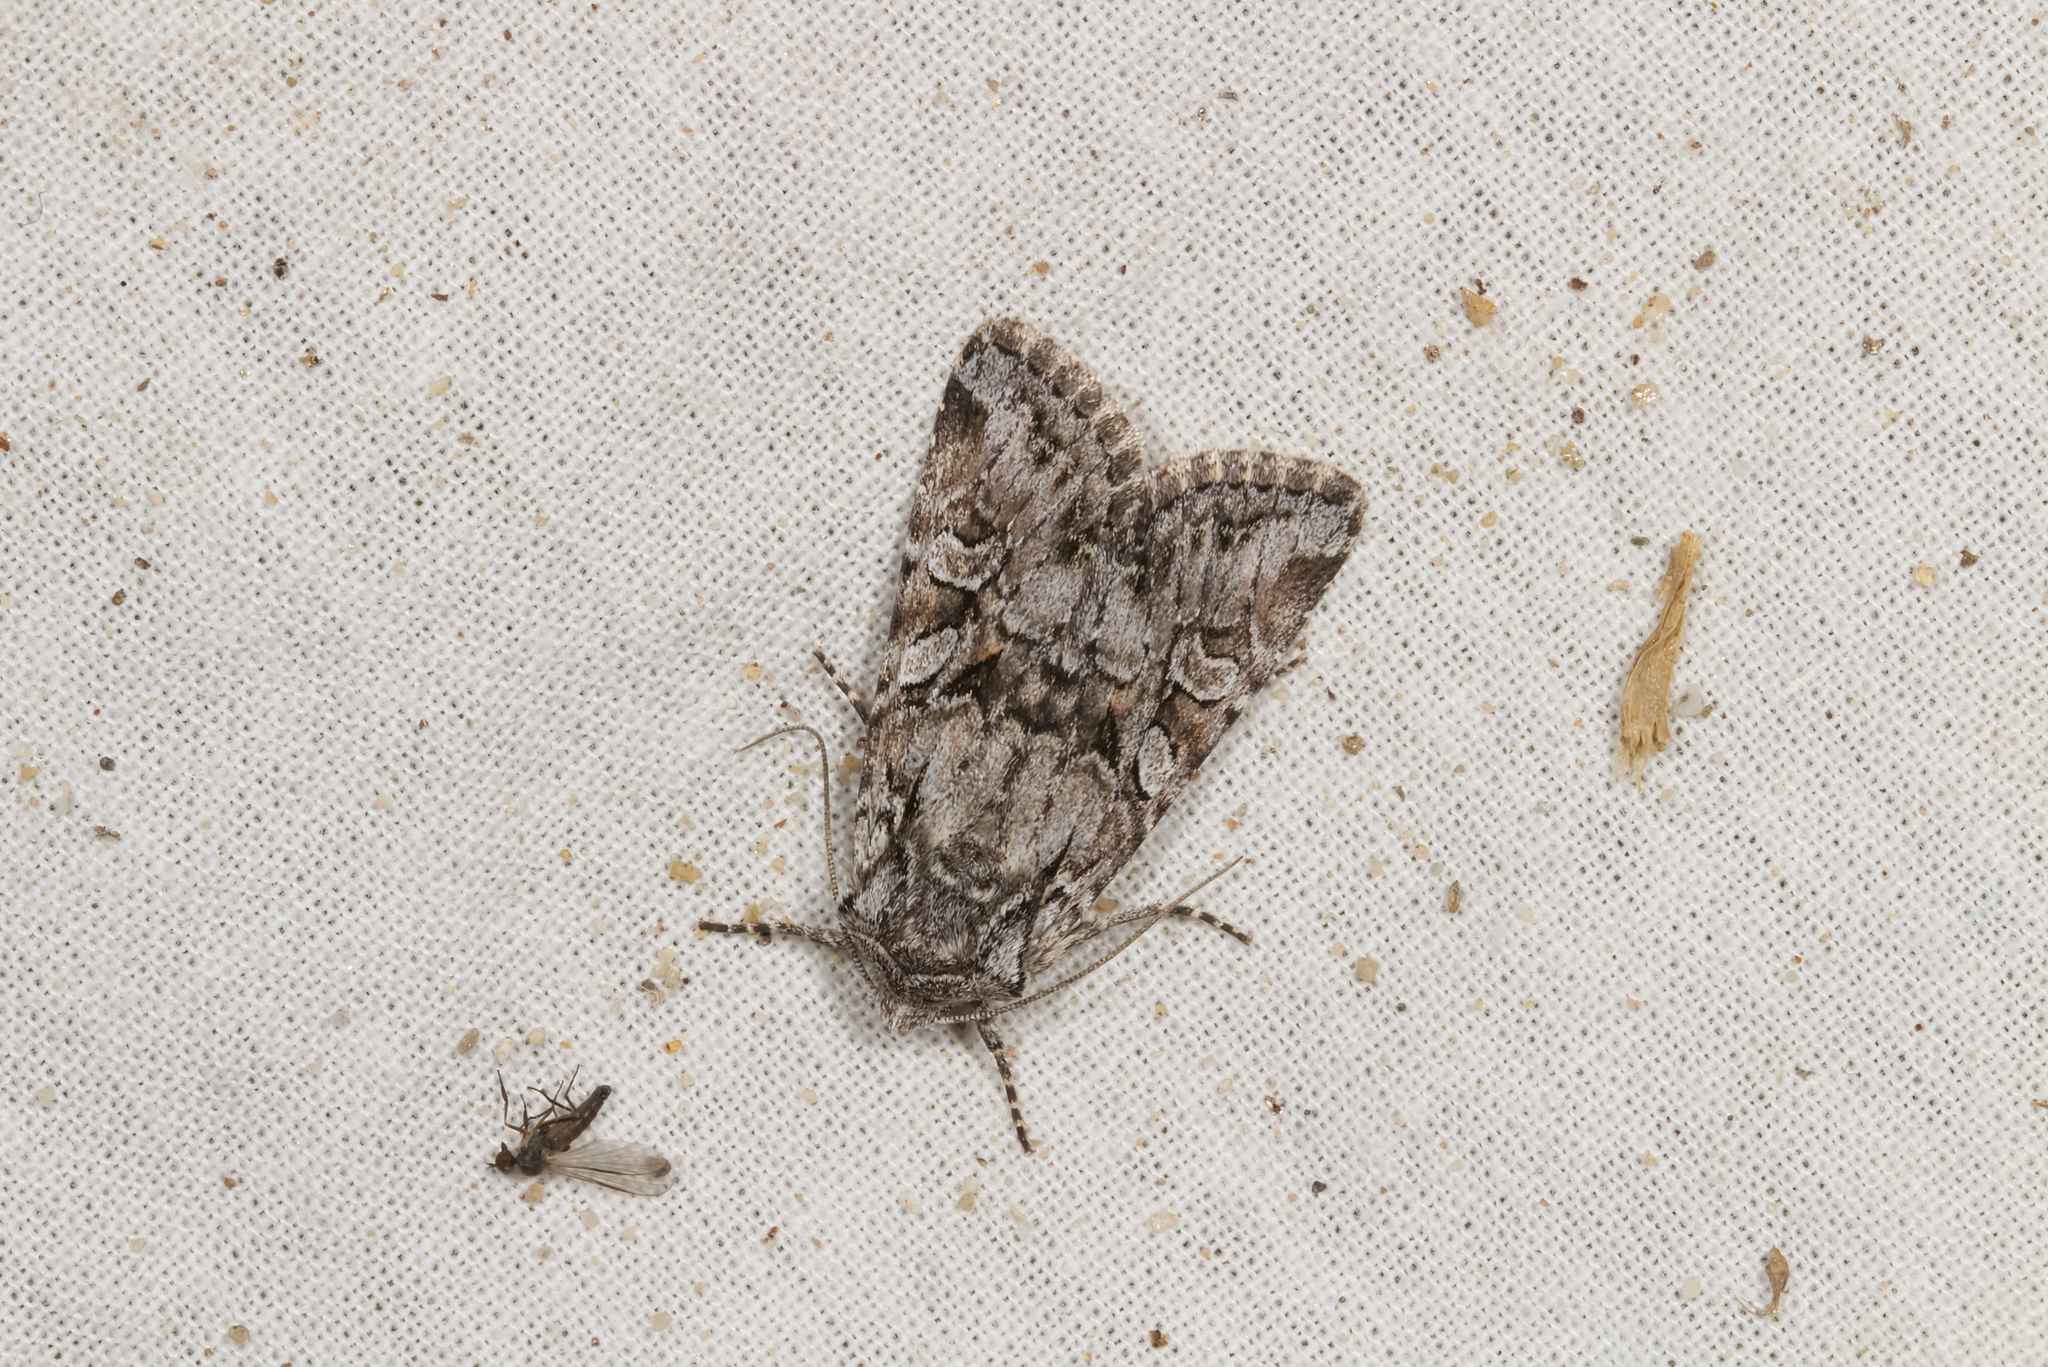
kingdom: Animalia
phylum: Arthropoda
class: Insecta
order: Lepidoptera
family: Noctuidae
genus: Lasionycta
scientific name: Lasionycta proxima
